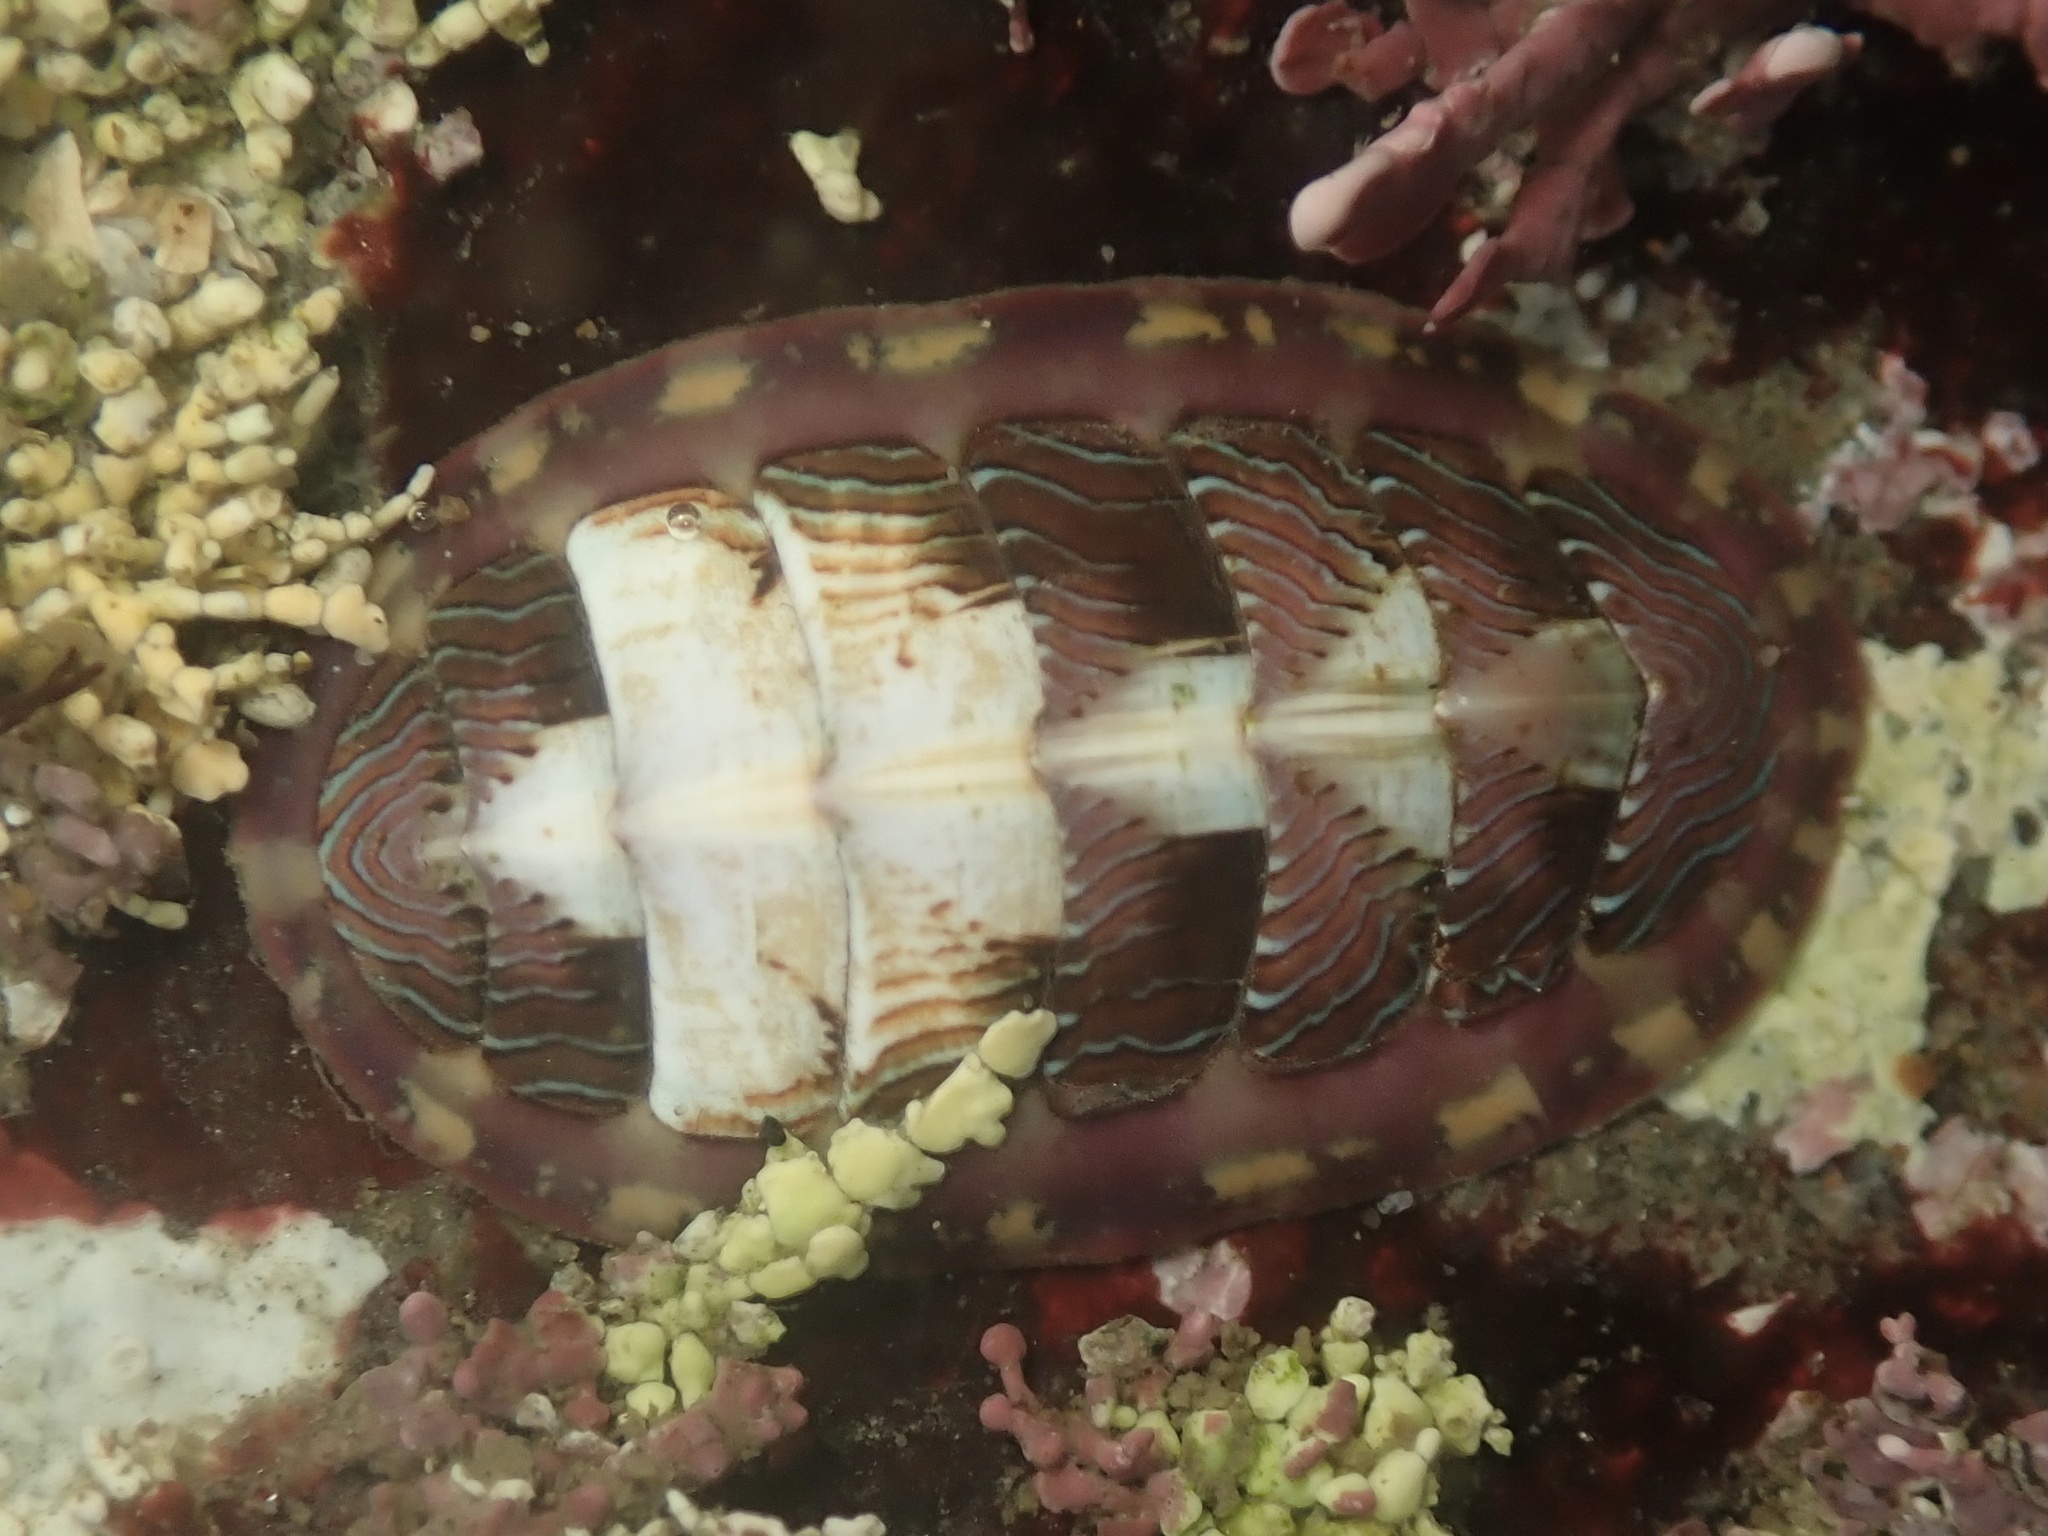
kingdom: Animalia
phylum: Mollusca
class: Polyplacophora
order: Chitonida
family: Tonicellidae
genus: Tonicella
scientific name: Tonicella lineata
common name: Lined chiton
